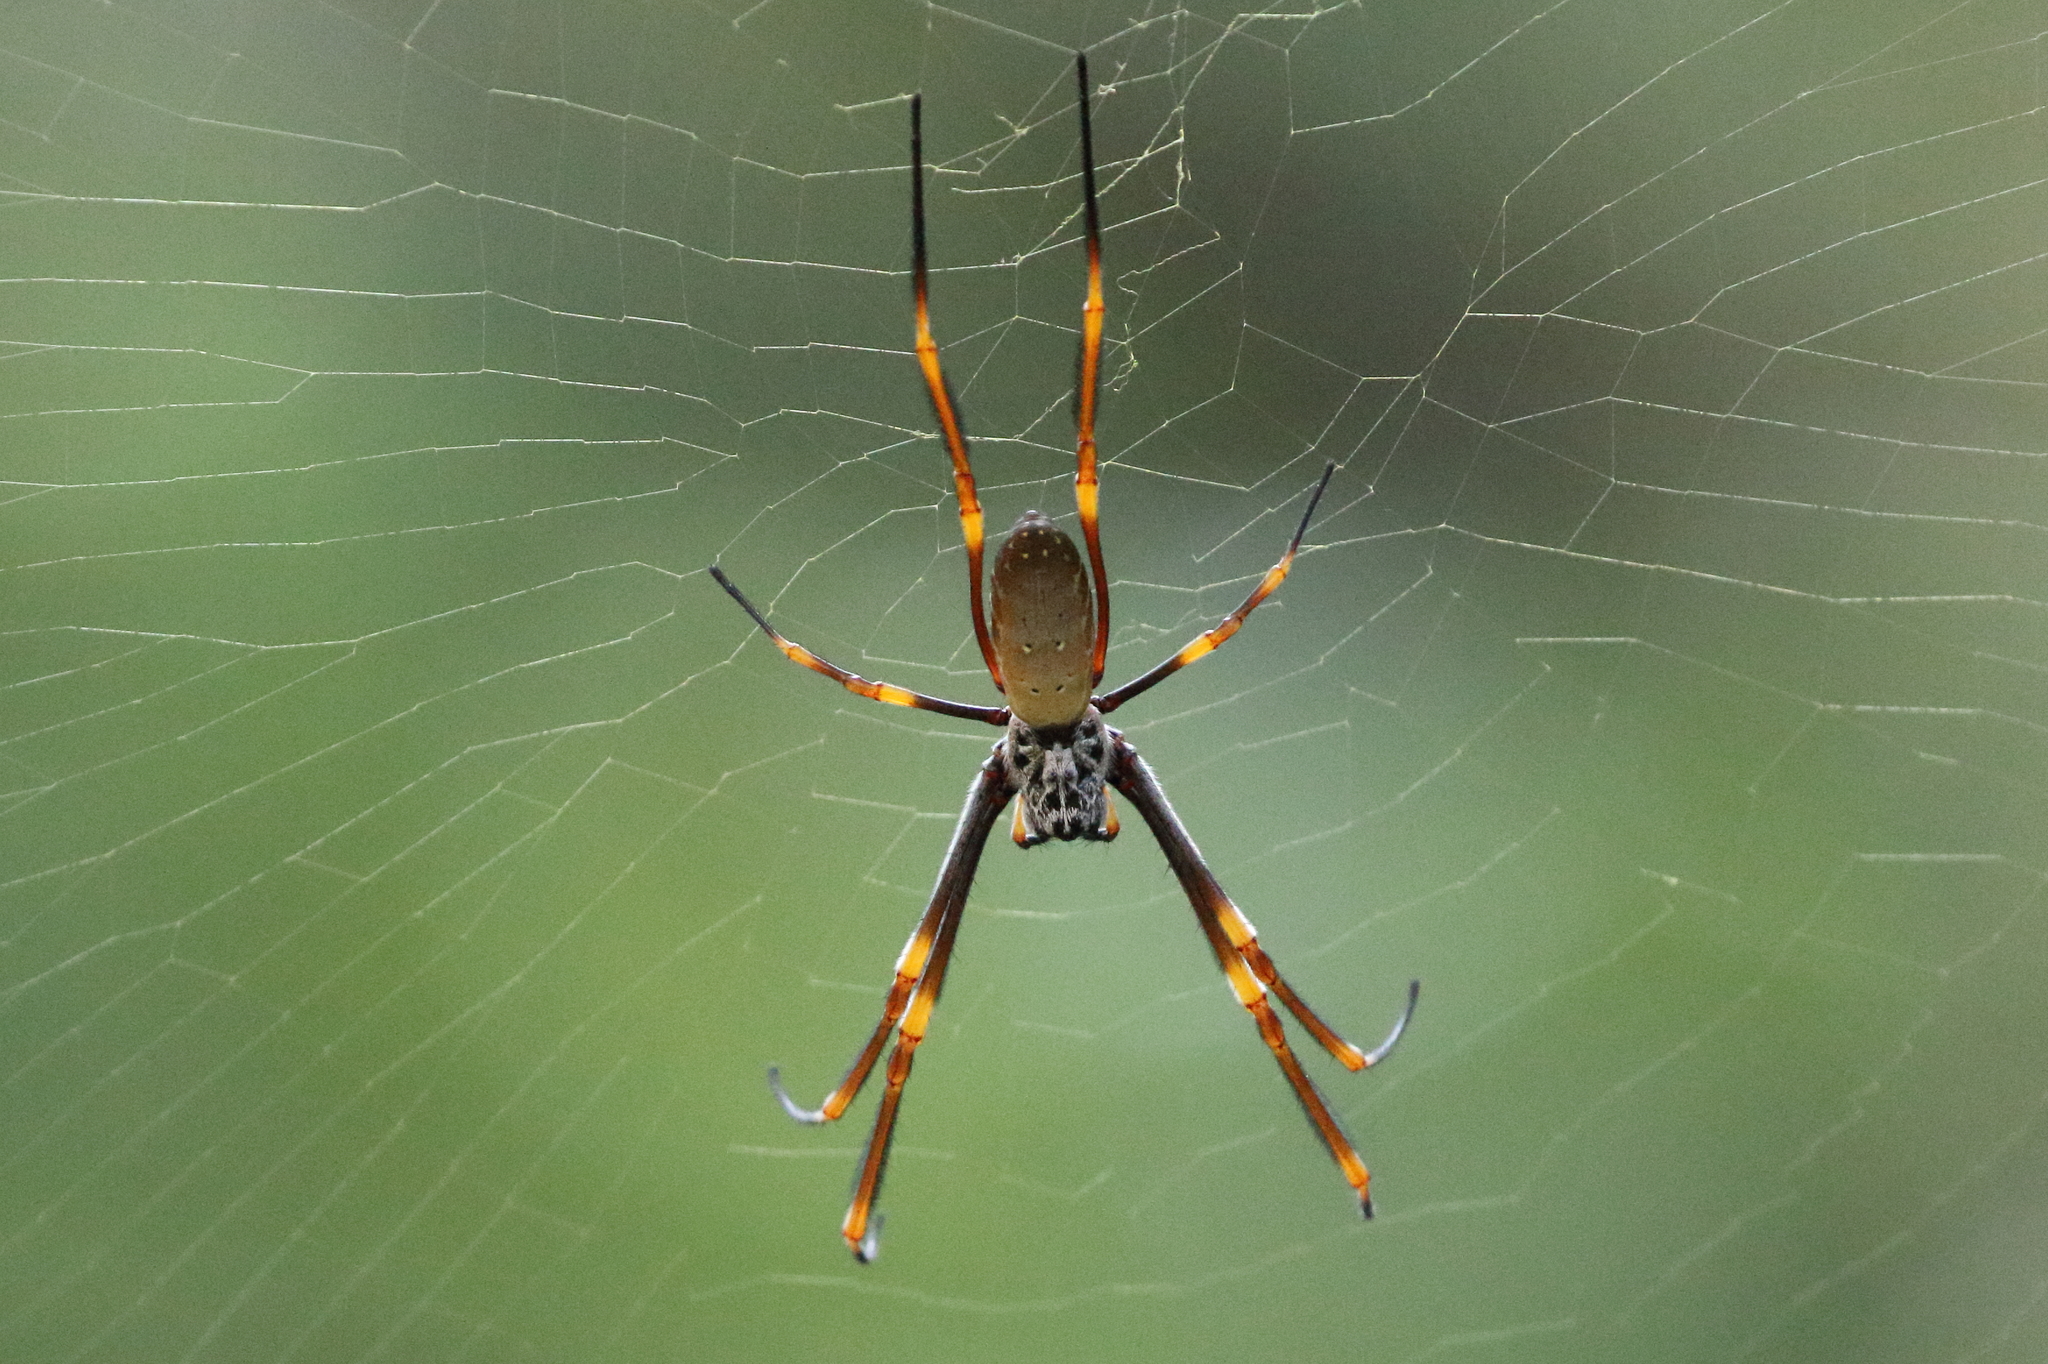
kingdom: Animalia
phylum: Arthropoda
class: Arachnida
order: Araneae
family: Araneidae
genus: Trichonephila
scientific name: Trichonephila plumipes
